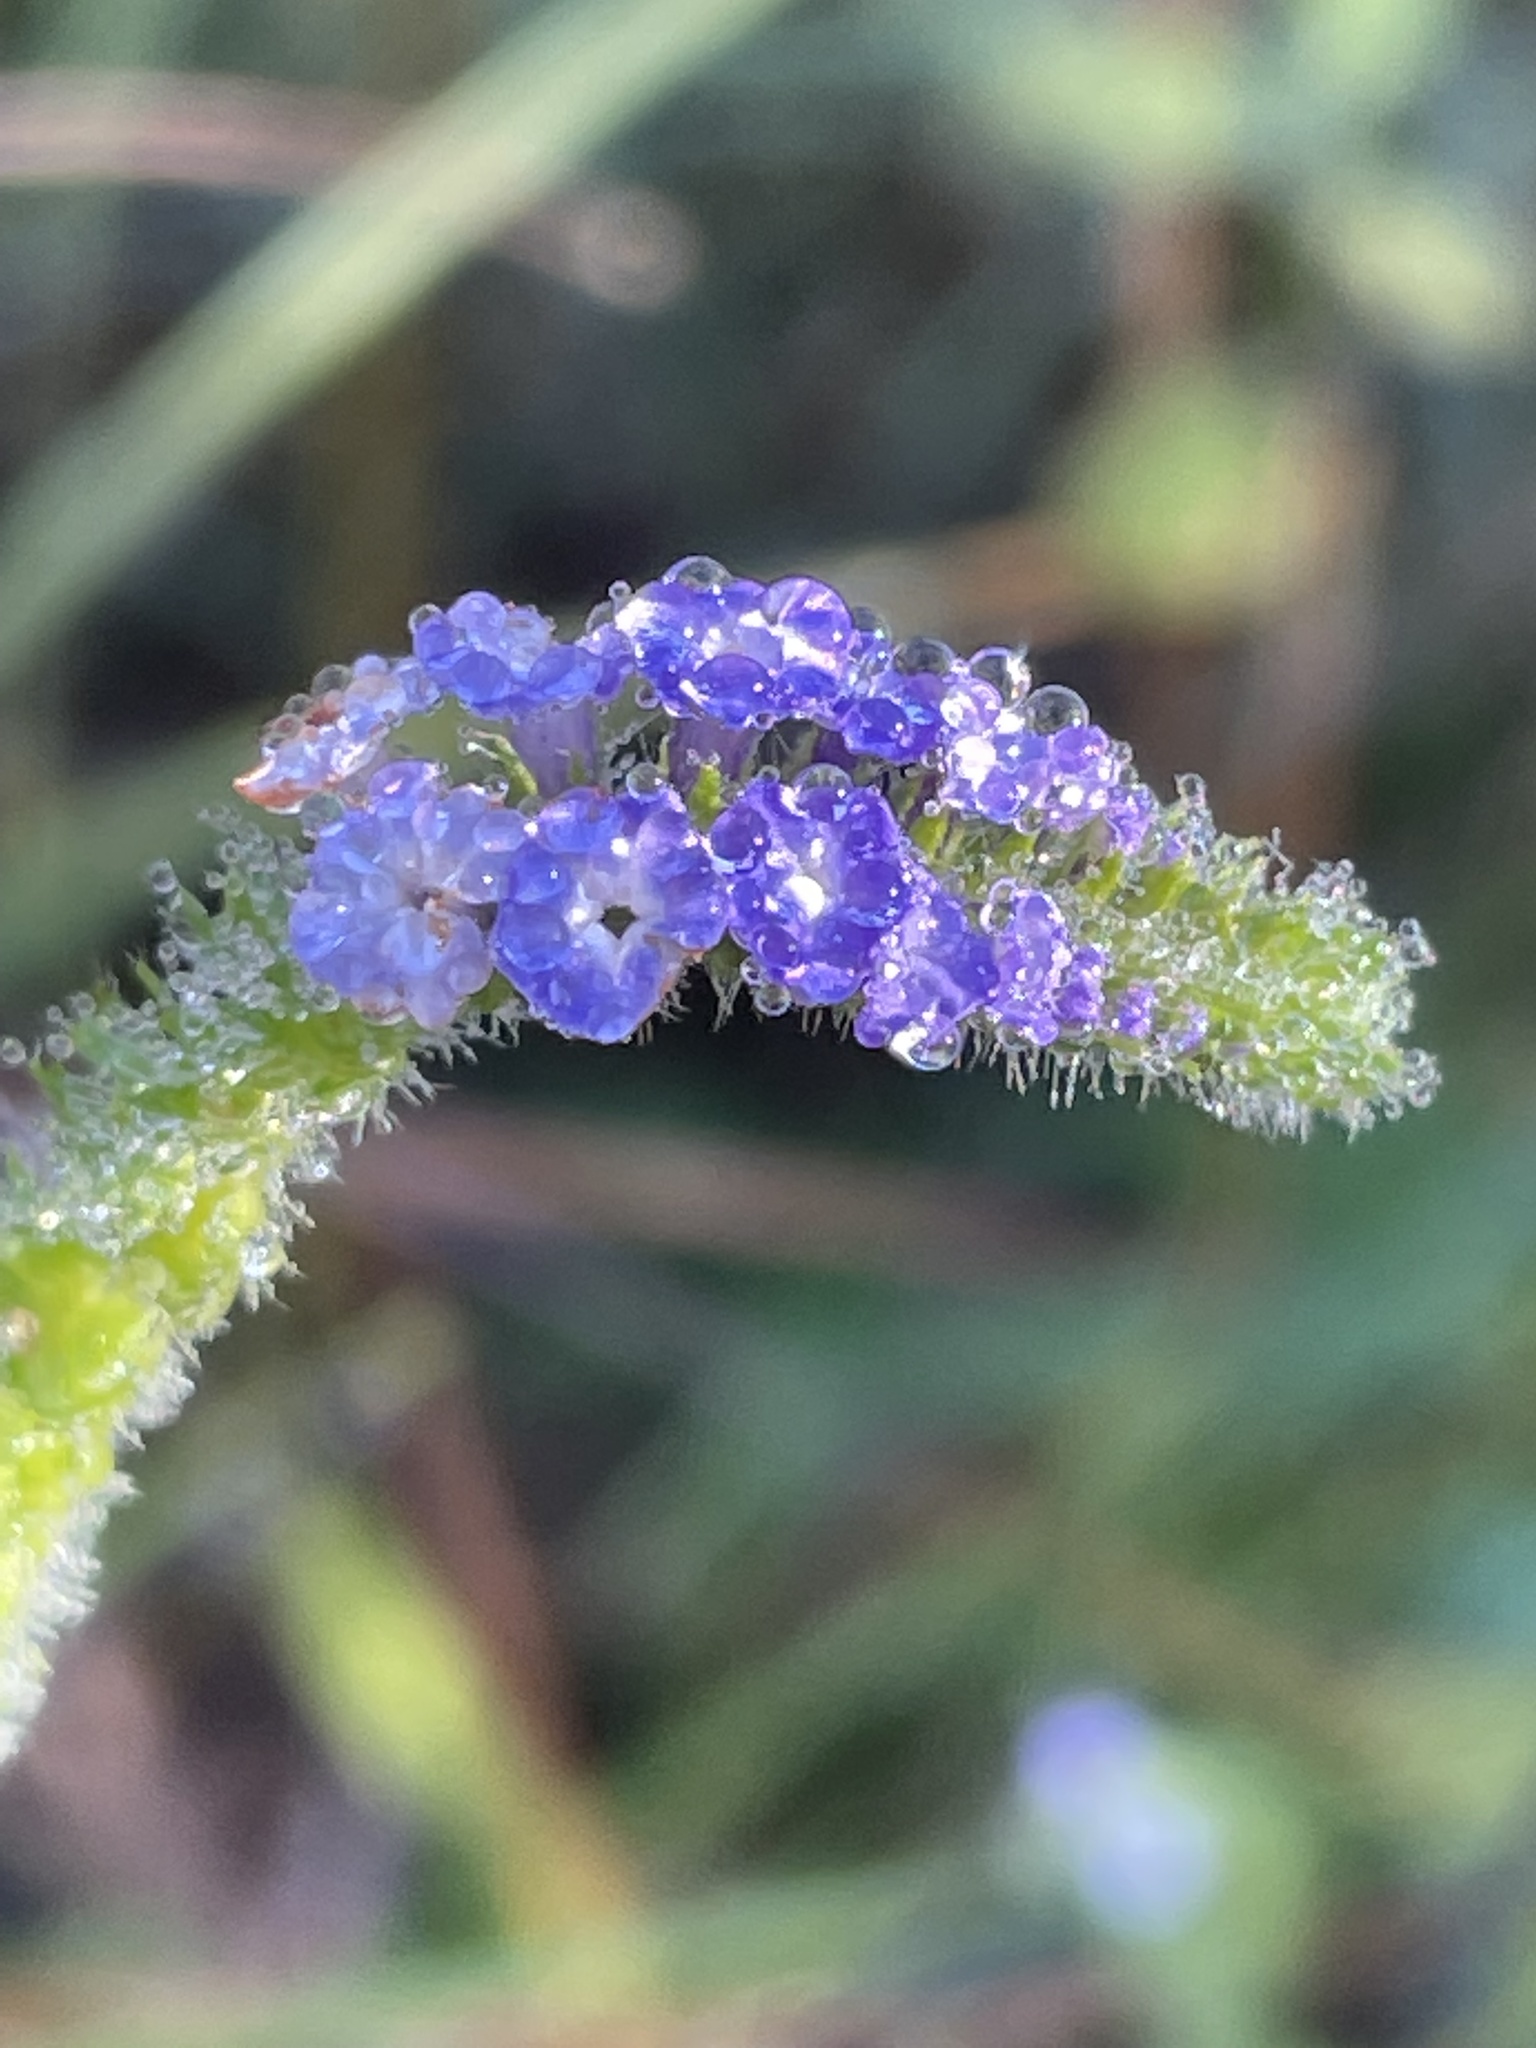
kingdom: Plantae
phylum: Tracheophyta
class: Magnoliopsida
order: Boraginales
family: Heliotropiaceae
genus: Heliotropium
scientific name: Heliotropium indicum
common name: Indian heliotrope
